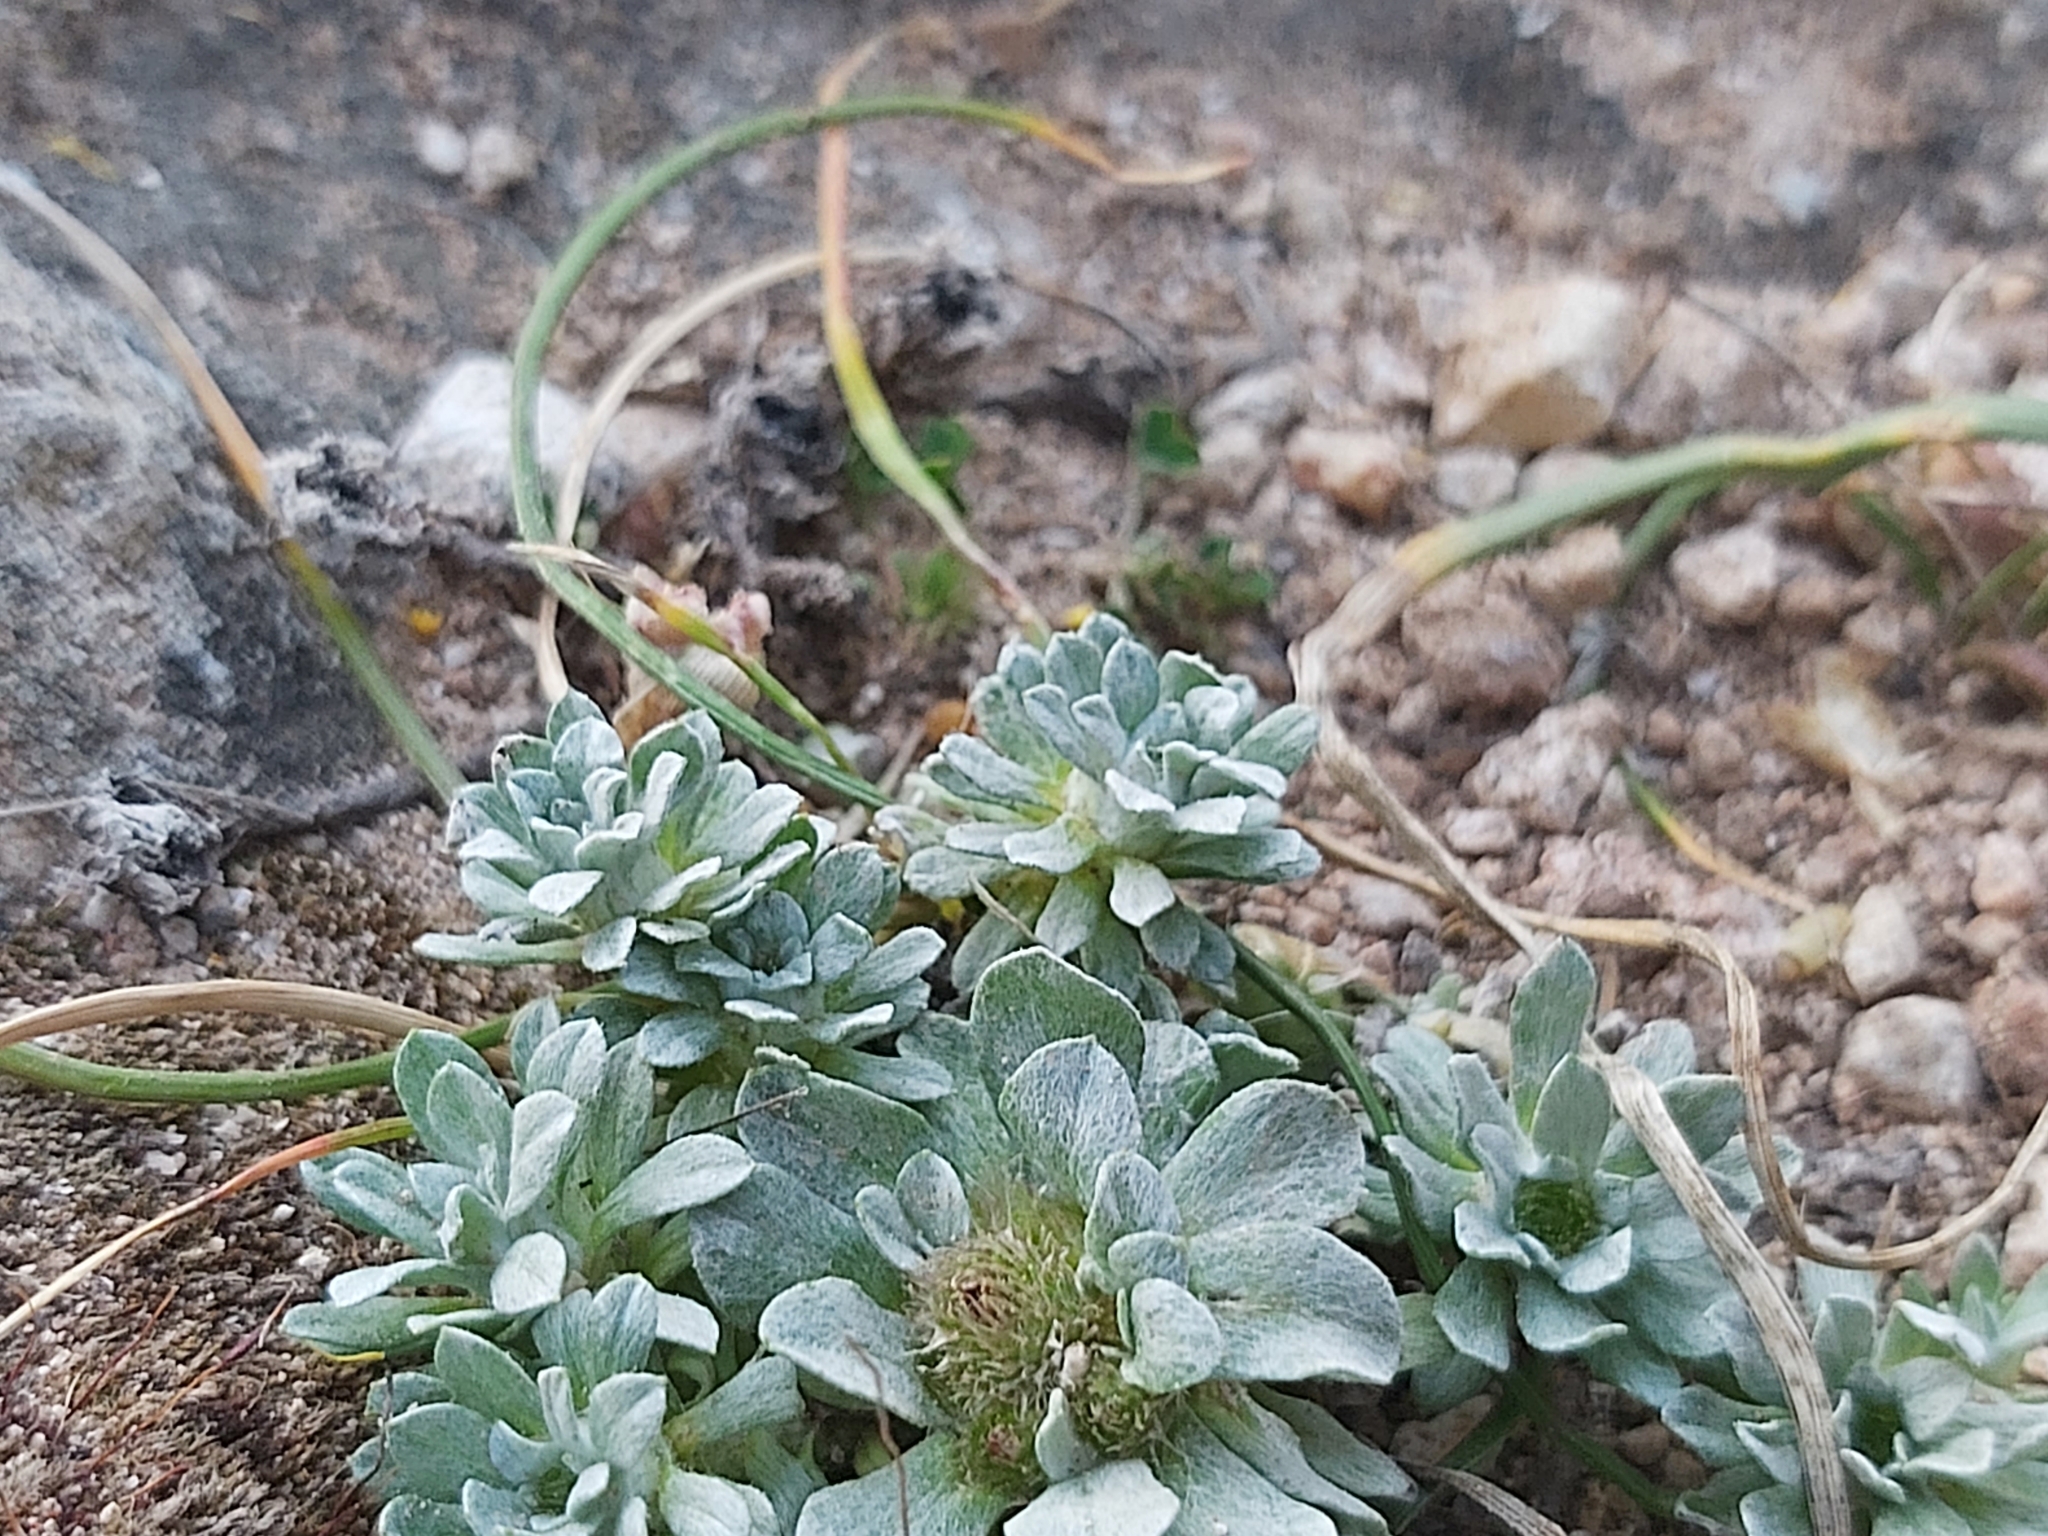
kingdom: Plantae
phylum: Tracheophyta
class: Magnoliopsida
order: Asterales
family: Asteraceae
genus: Filago
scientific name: Filago pygmaea
